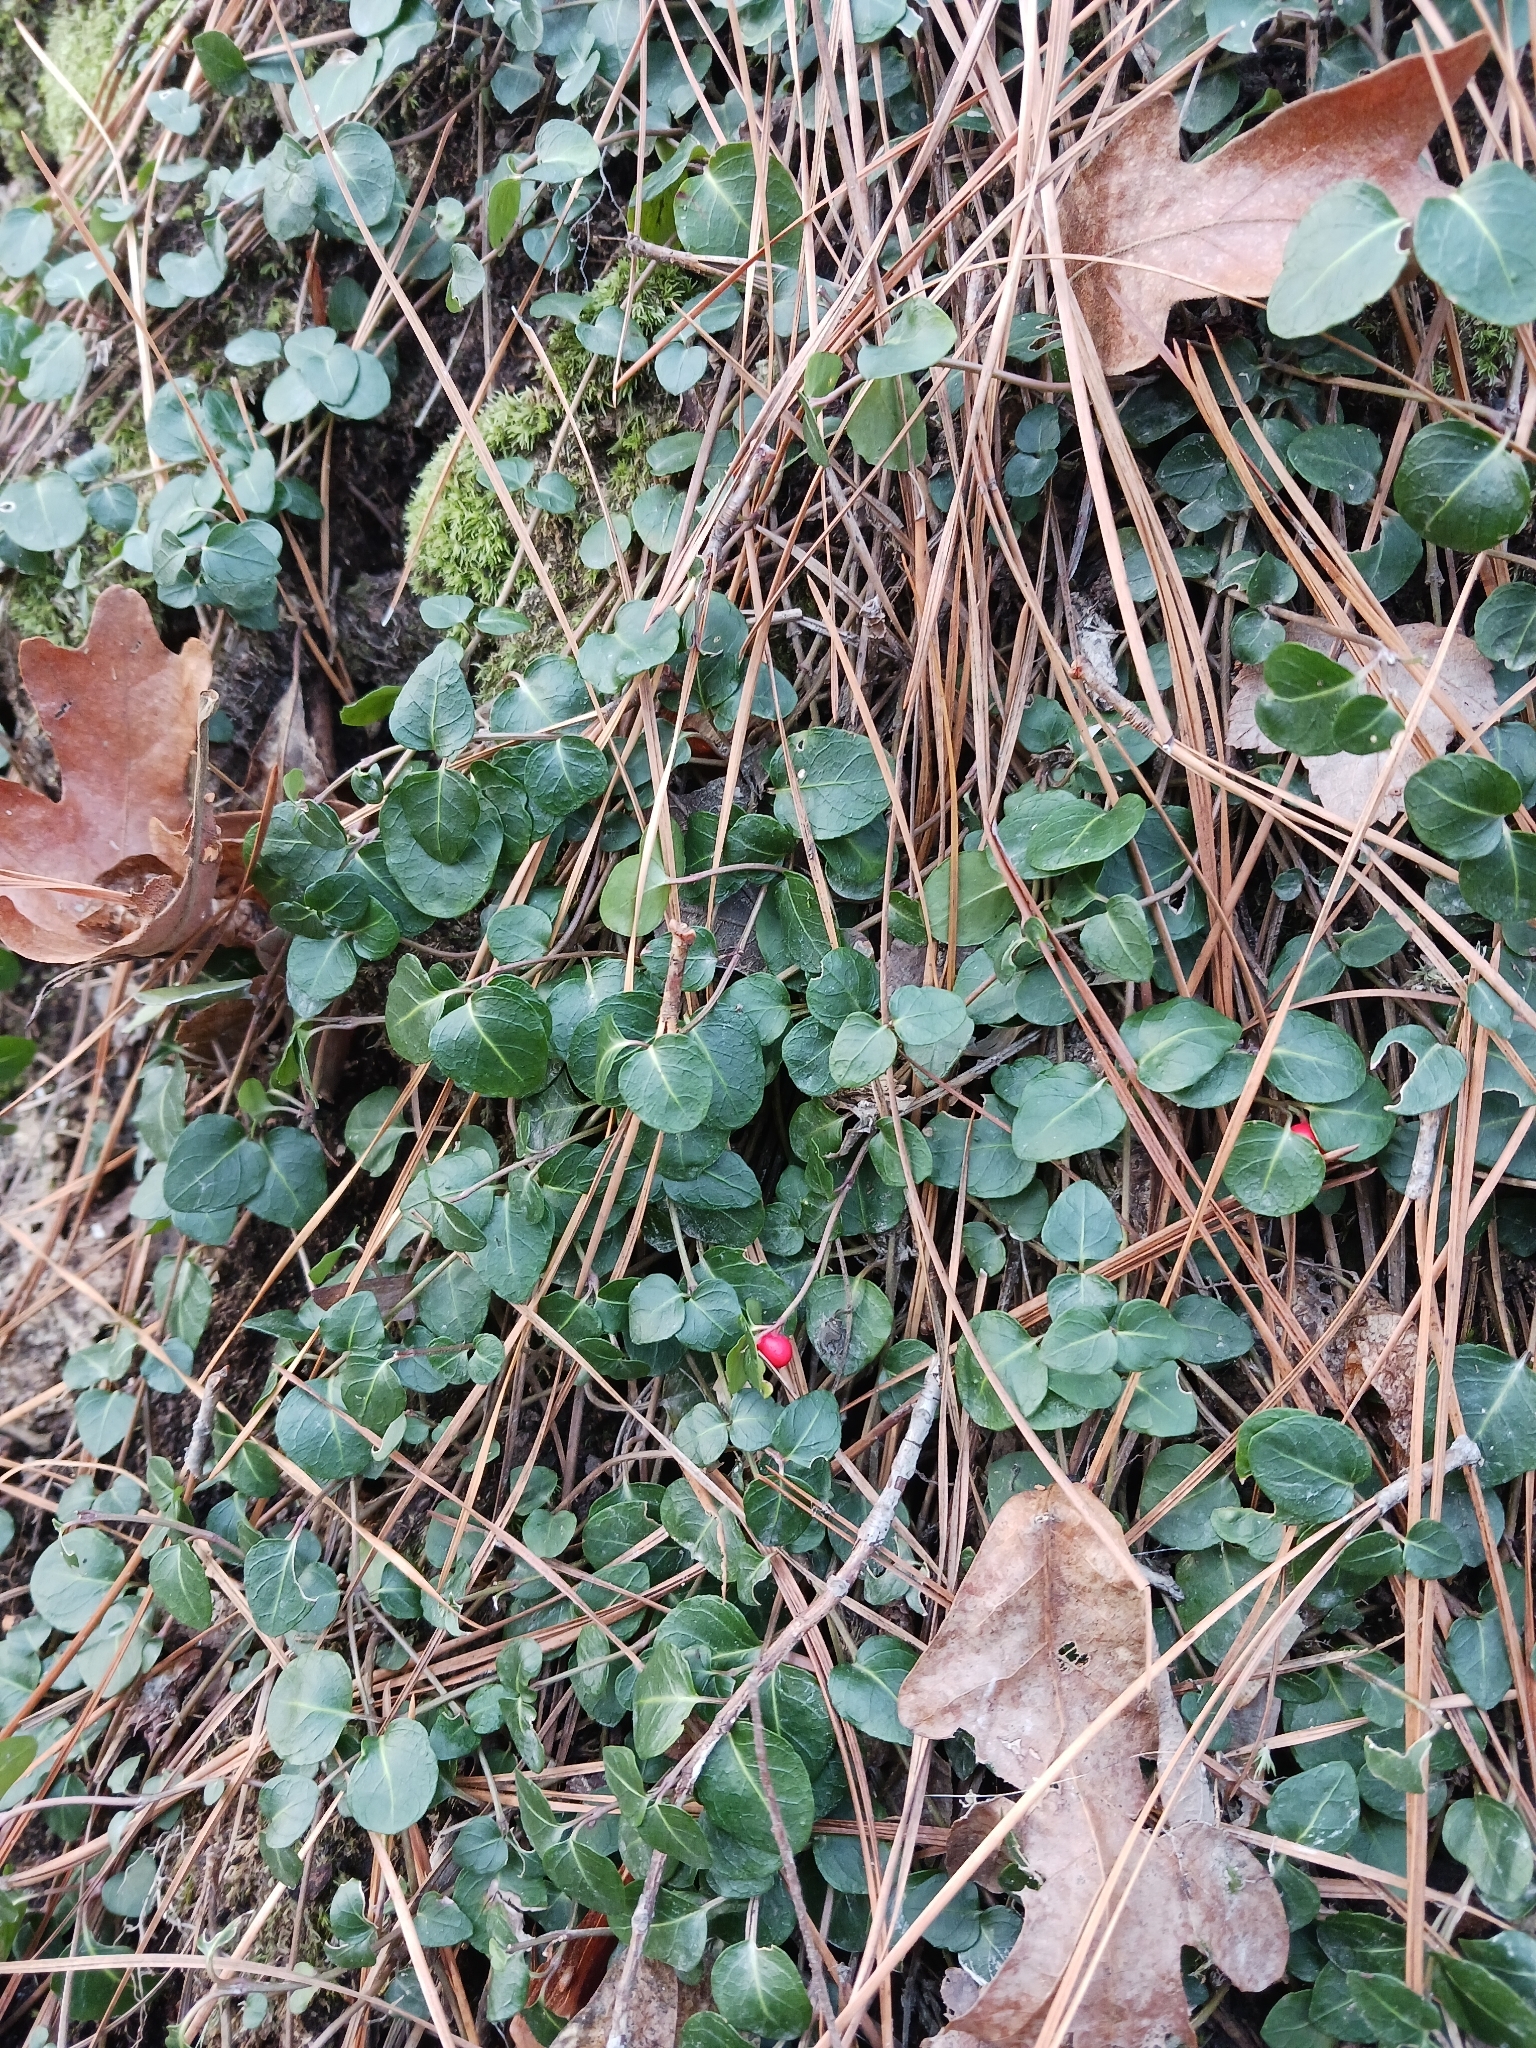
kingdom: Plantae
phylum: Tracheophyta
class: Magnoliopsida
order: Gentianales
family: Rubiaceae
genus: Mitchella
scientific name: Mitchella repens
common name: Partridge-berry
